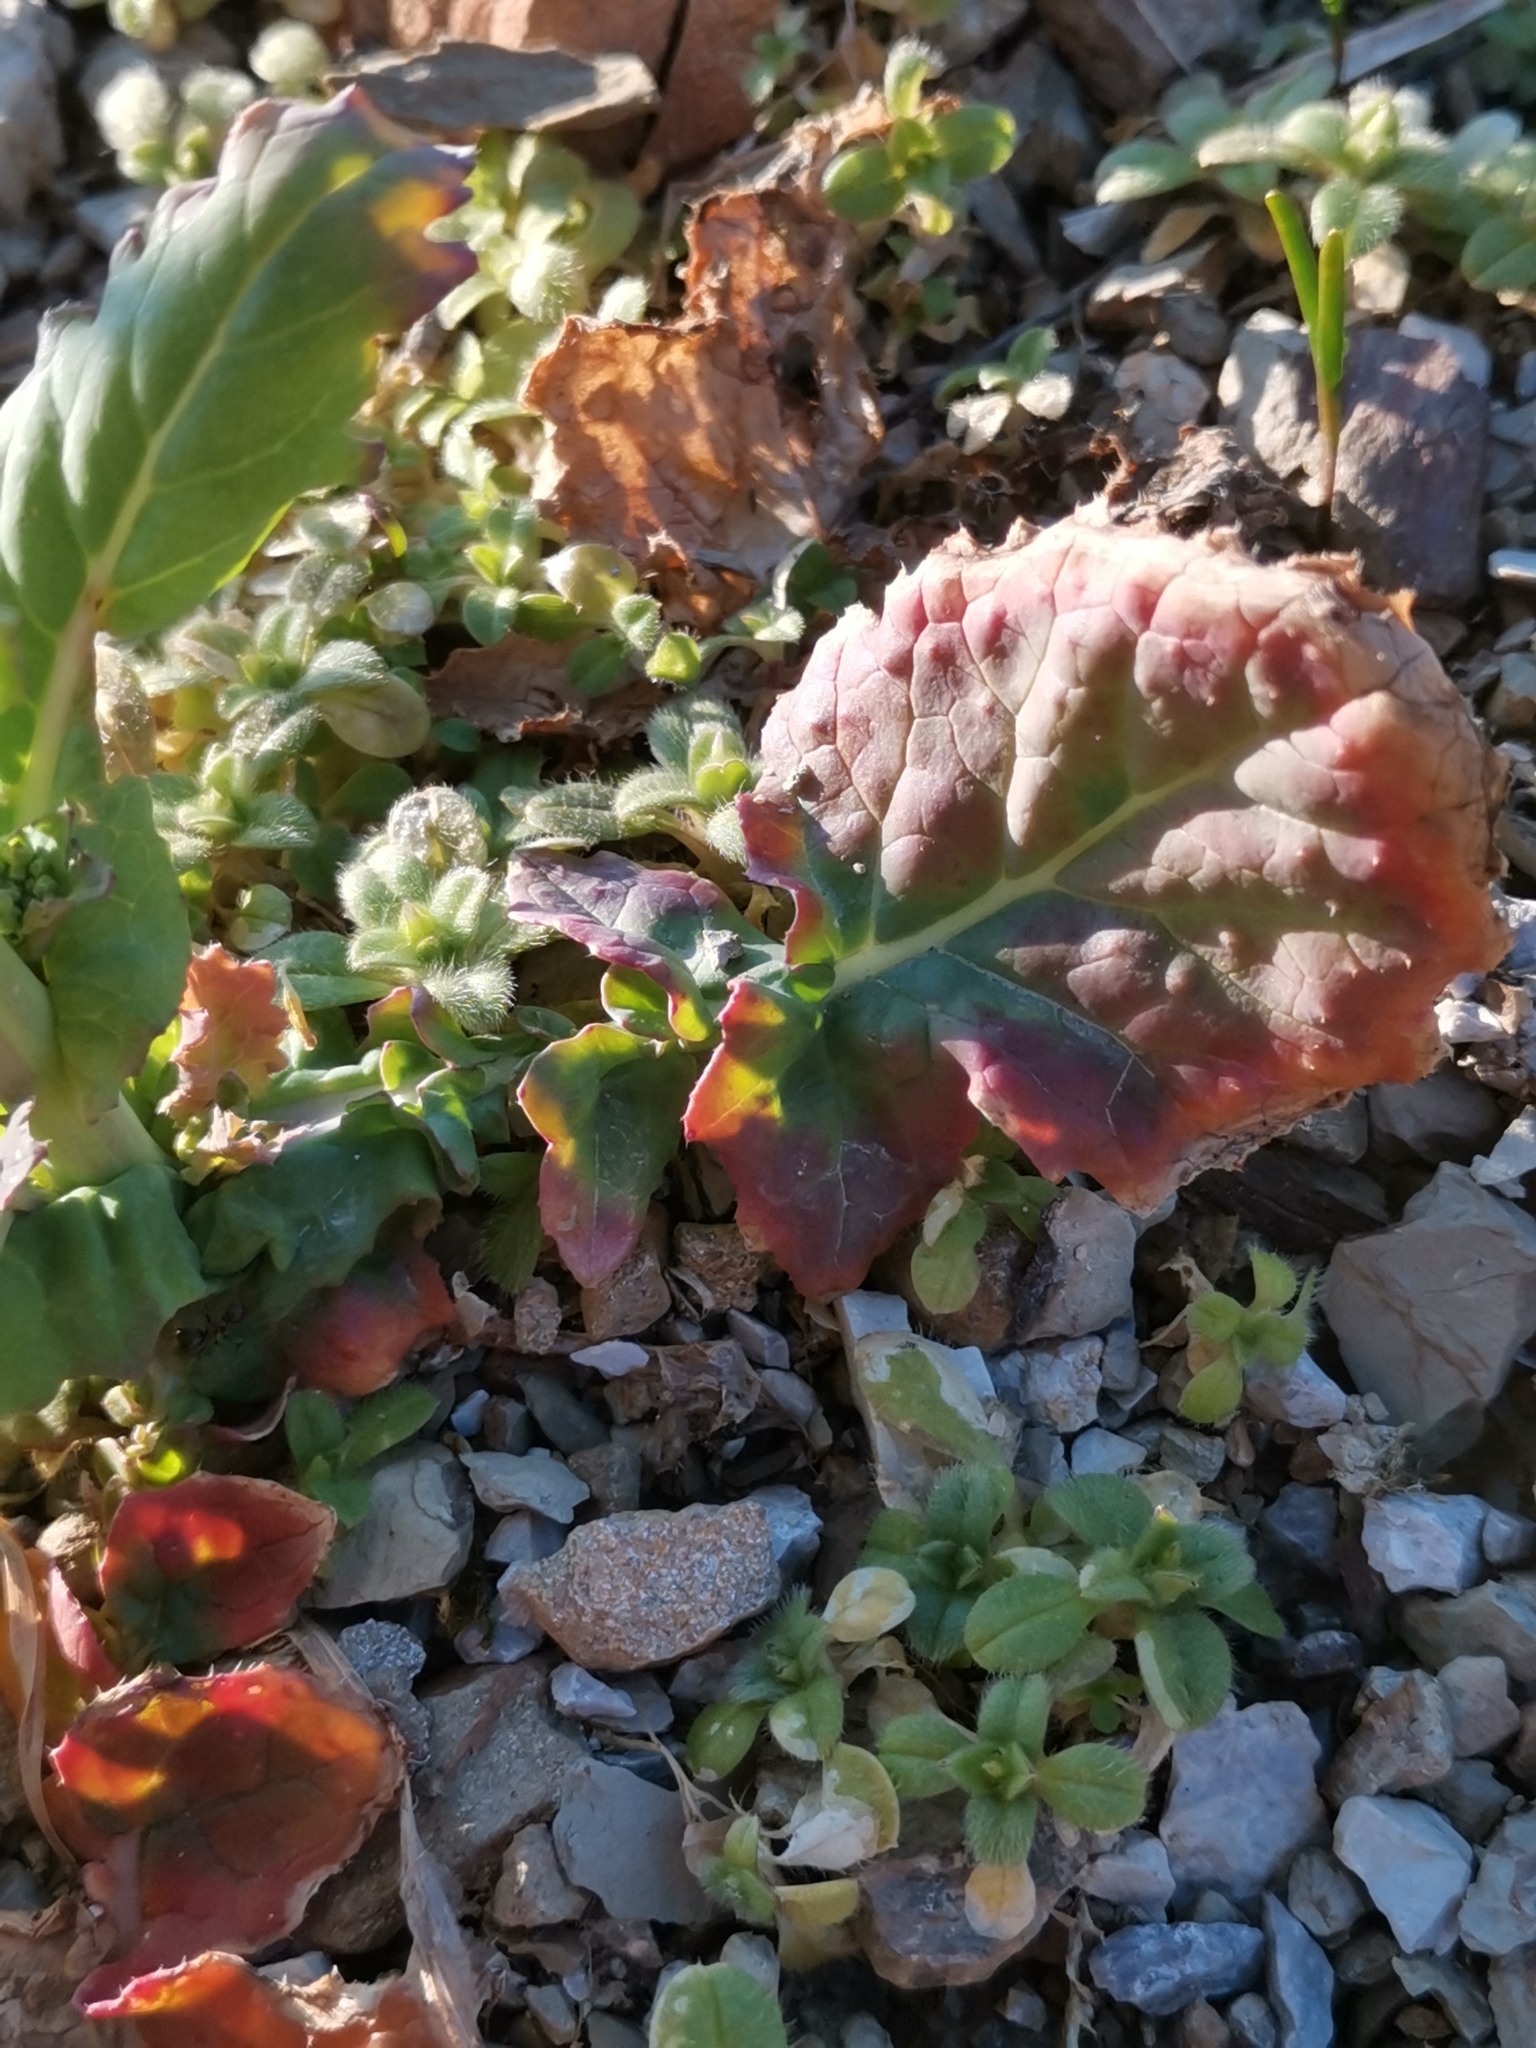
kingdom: Plantae
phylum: Tracheophyta
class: Magnoliopsida
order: Brassicales
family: Brassicaceae
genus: Brassica
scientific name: Brassica napus
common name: Rape
